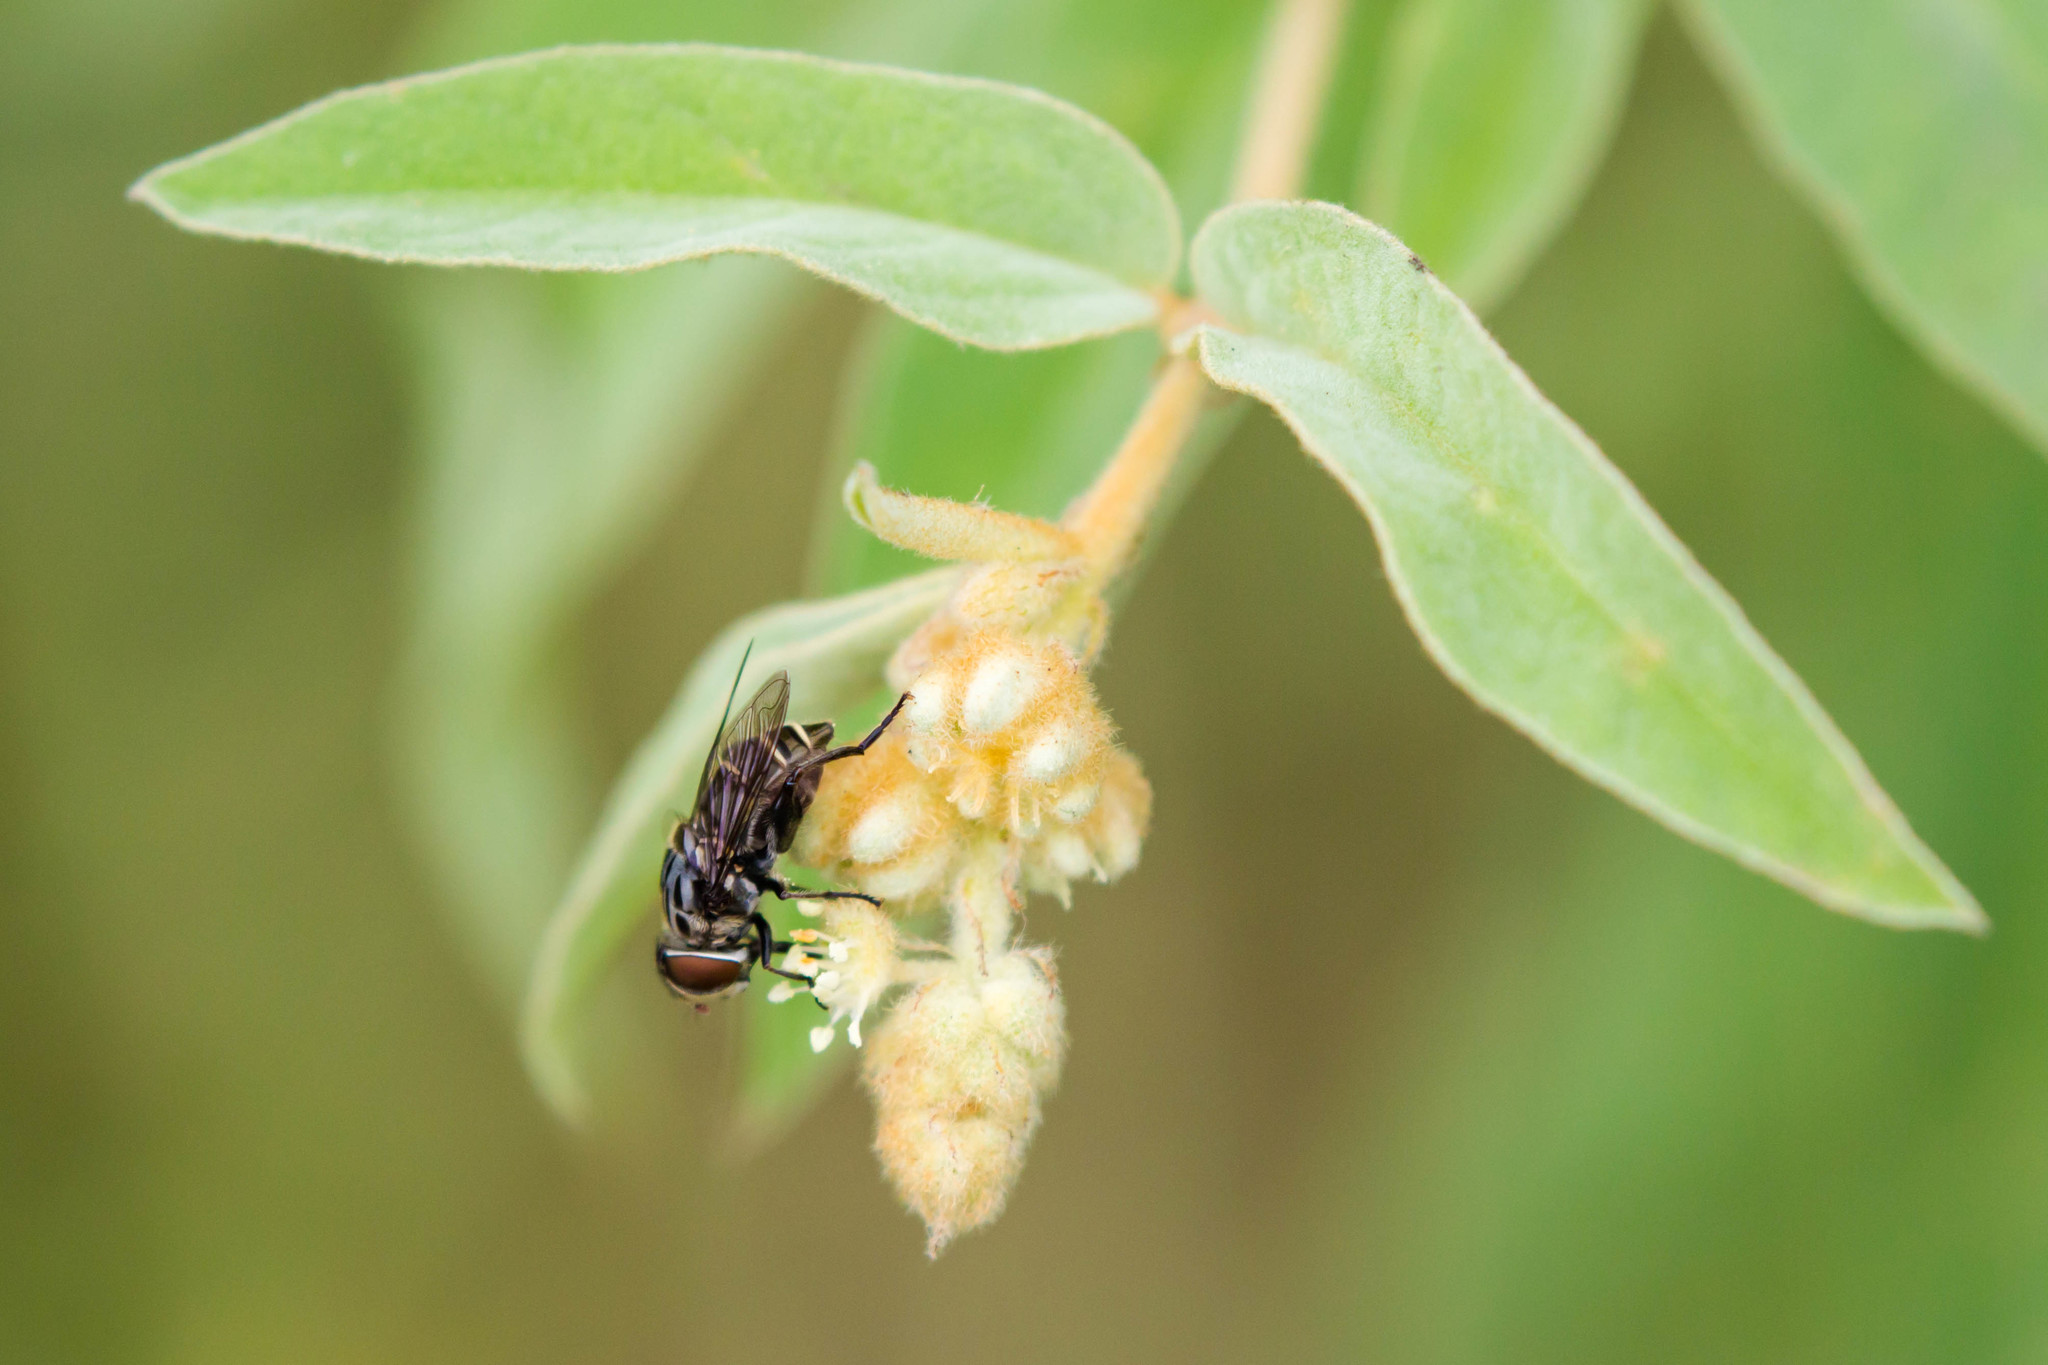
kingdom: Animalia
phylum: Arthropoda
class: Insecta
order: Diptera
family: Syrphidae
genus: Palpada
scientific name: Palpada furcata
